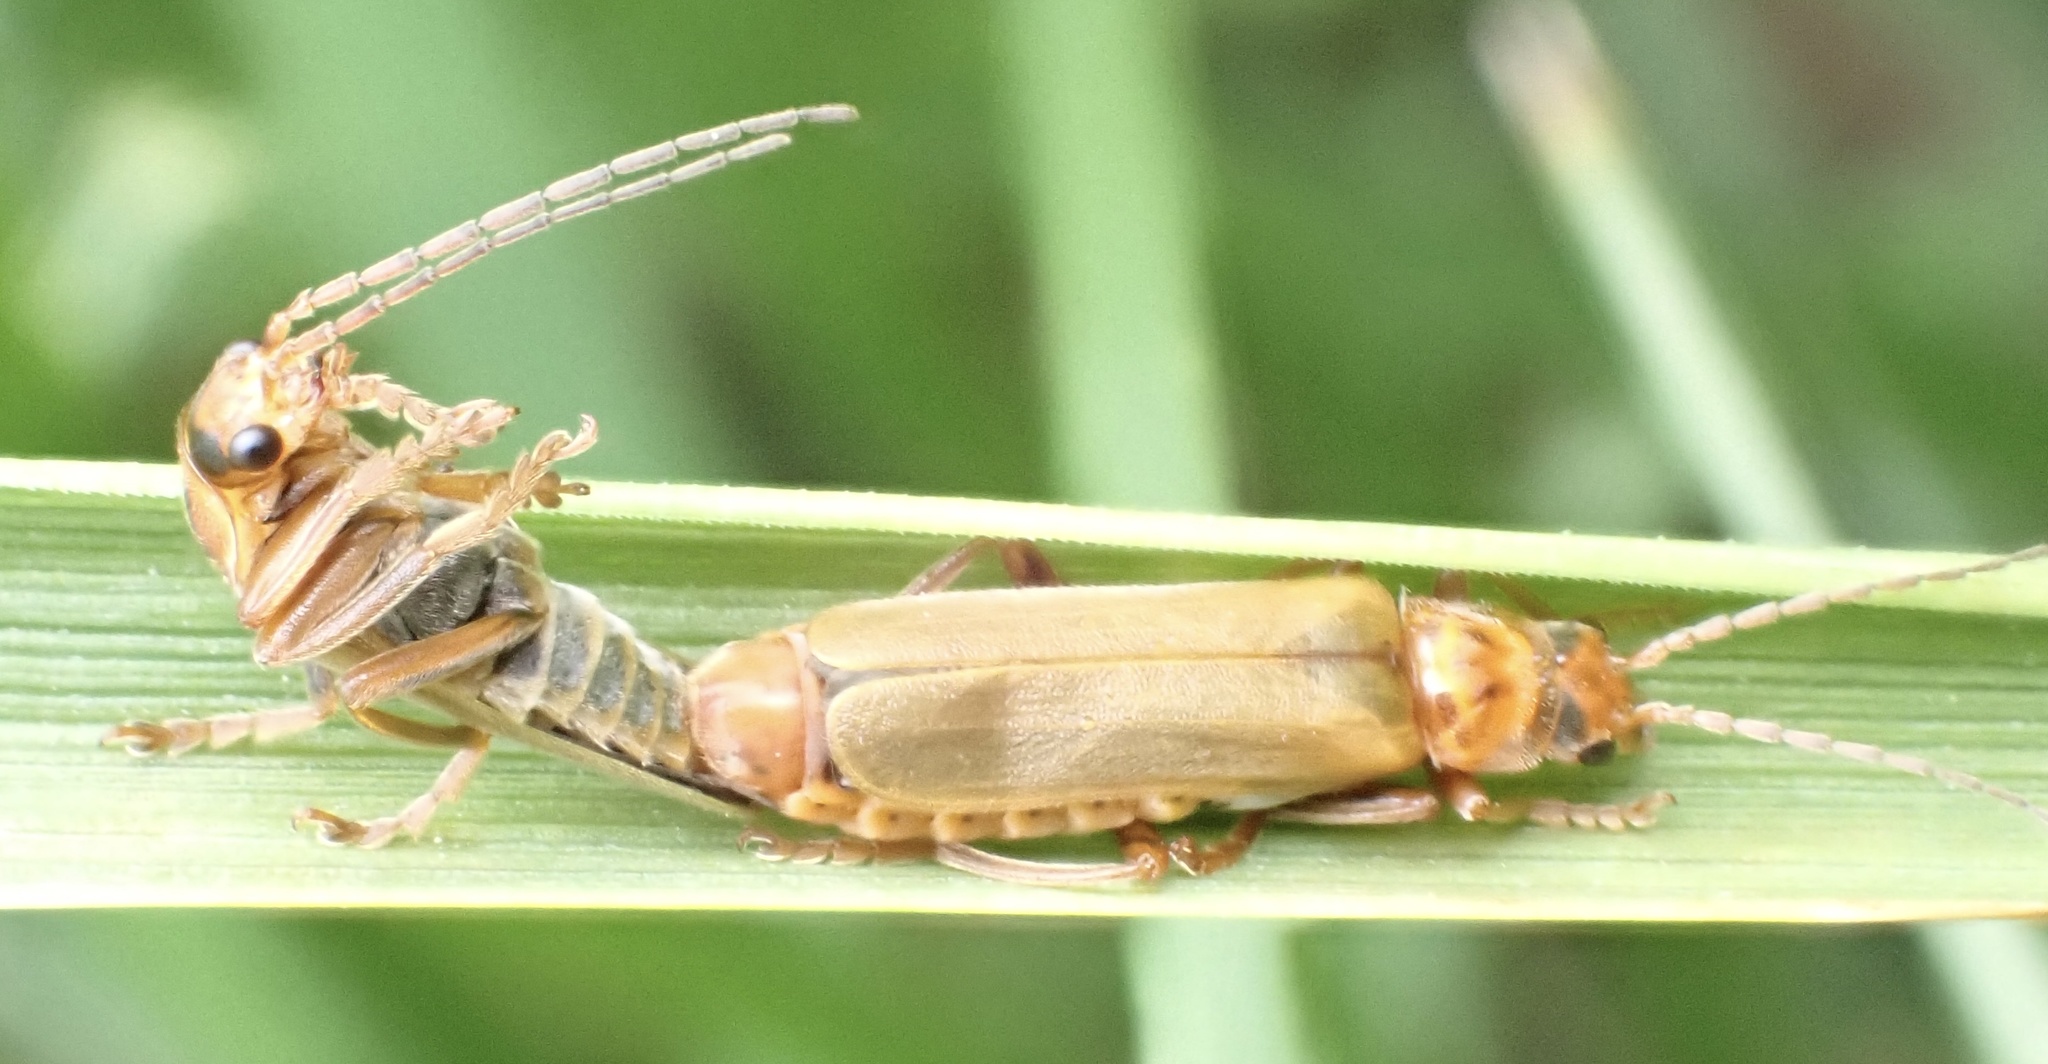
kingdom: Animalia
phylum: Arthropoda
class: Insecta
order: Coleoptera
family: Cantharidae
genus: Cantharis
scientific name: Cantharis rufa
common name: Red-spotted soldier beetle
